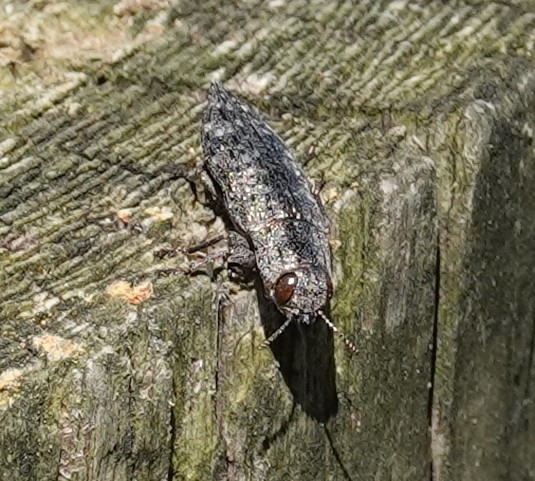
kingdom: Animalia
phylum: Arthropoda
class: Insecta
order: Coleoptera
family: Buprestidae
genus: Dicerca
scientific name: Dicerca lurida
